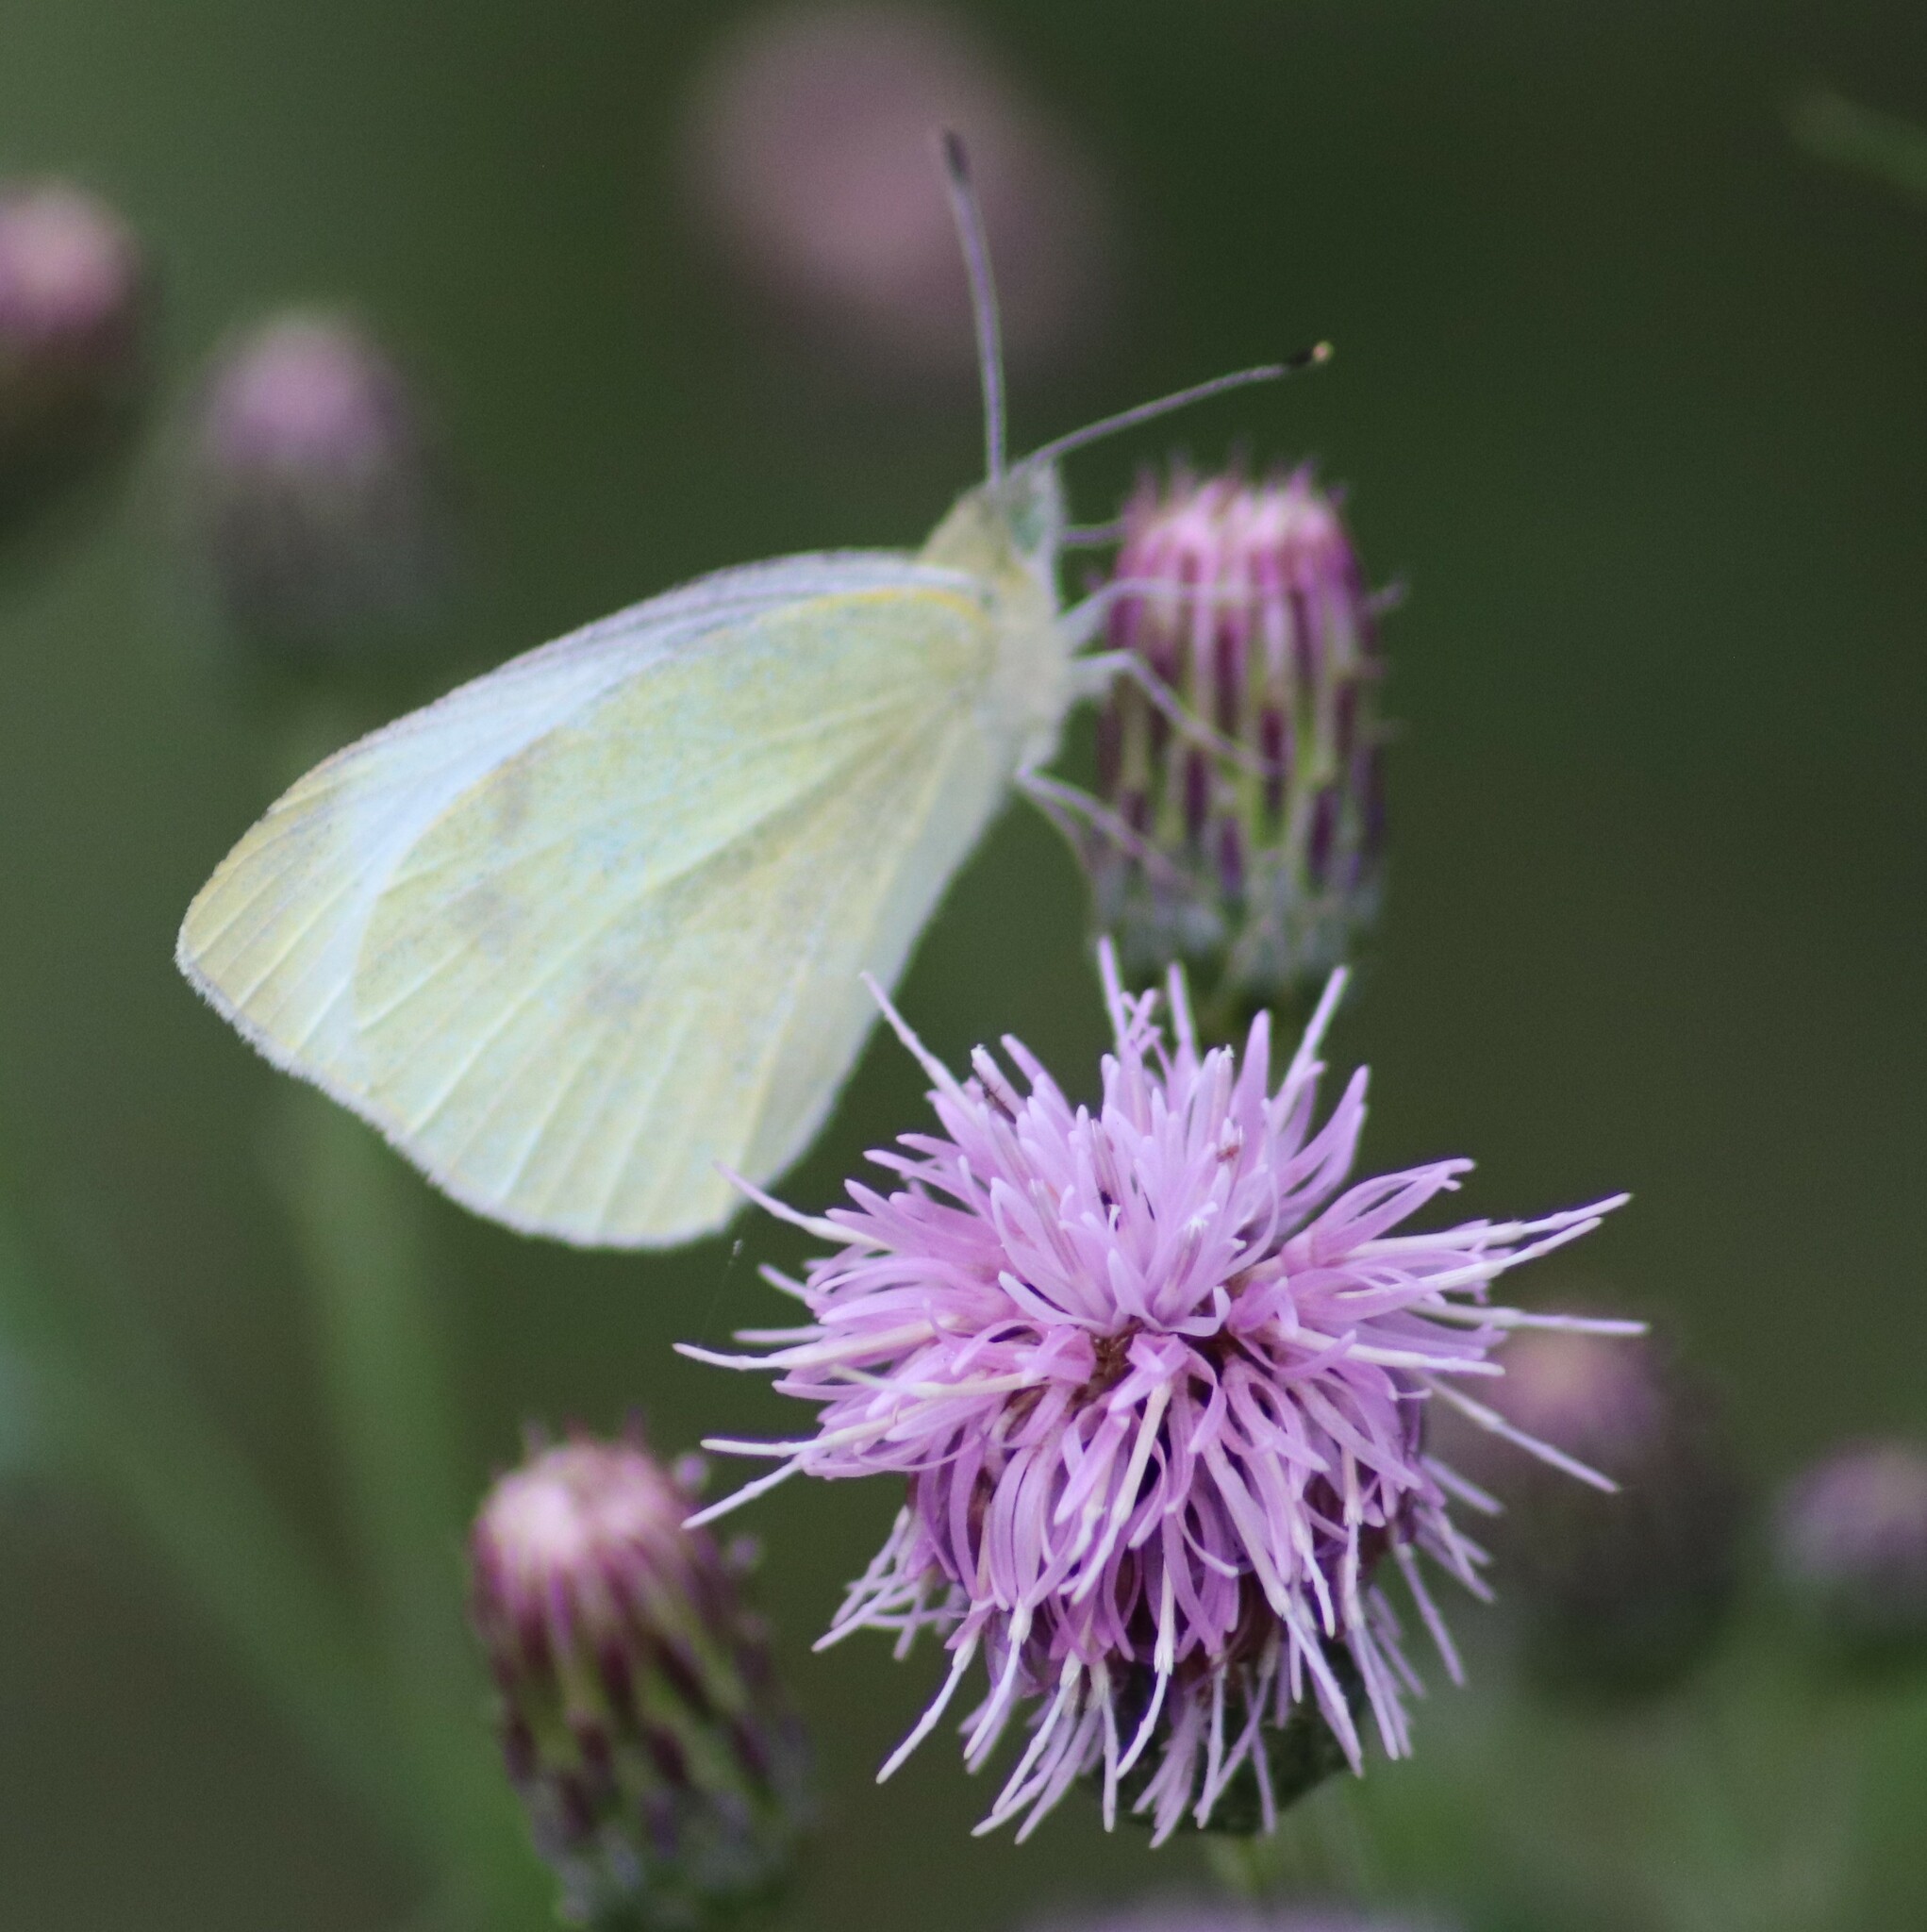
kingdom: Animalia
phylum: Arthropoda
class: Insecta
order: Lepidoptera
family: Pieridae
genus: Pieris
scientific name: Pieris rapae
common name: Small white
